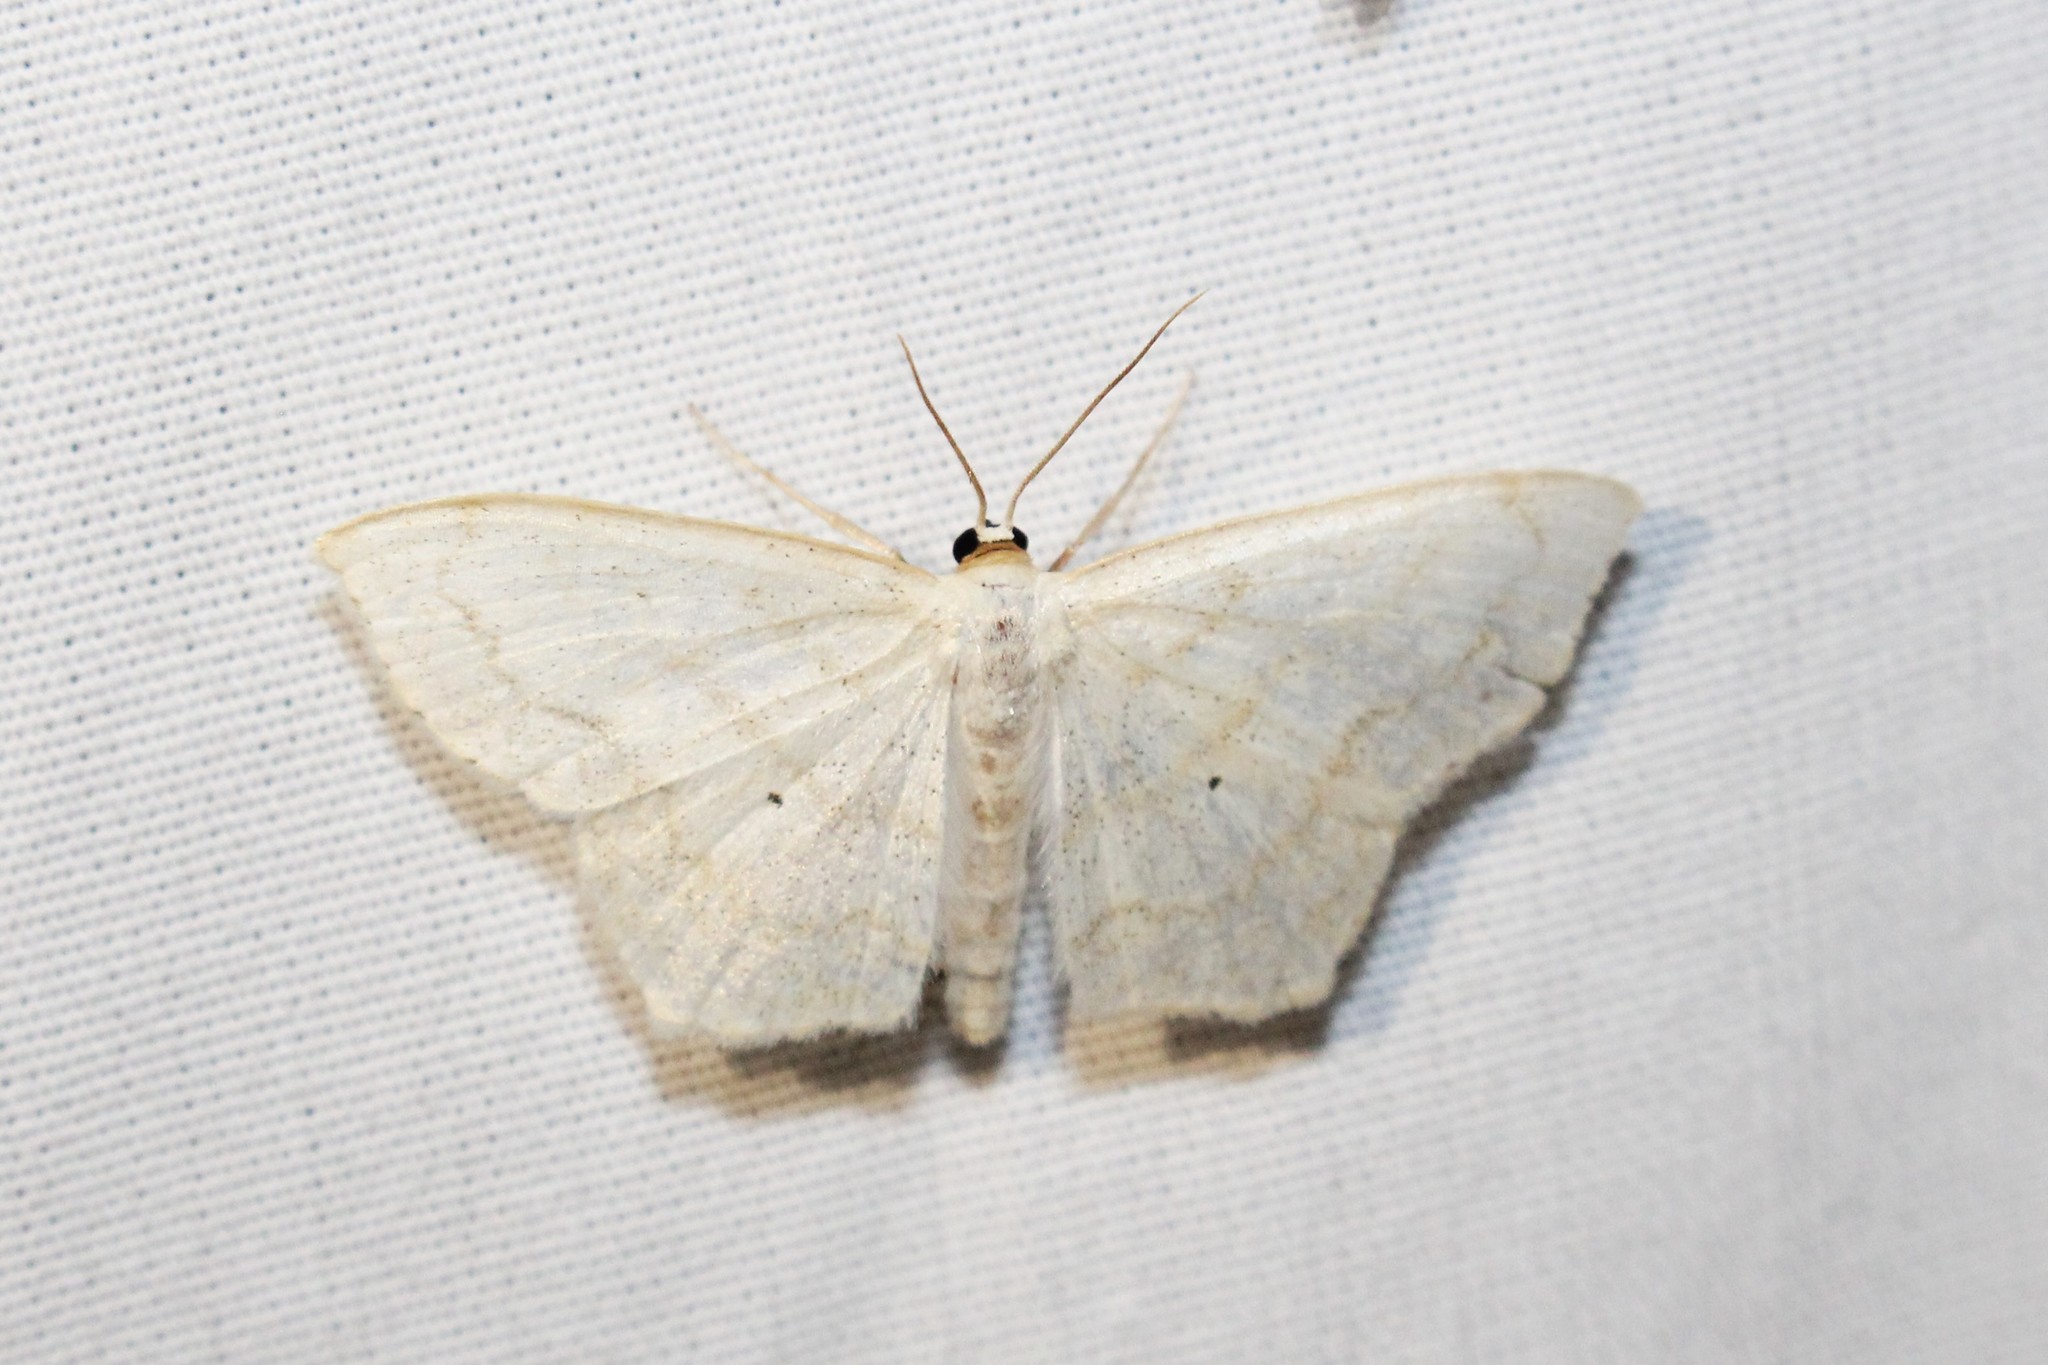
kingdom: Animalia
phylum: Arthropoda
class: Insecta
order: Lepidoptera
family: Geometridae
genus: Scopula
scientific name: Scopula limboundata
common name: Large lace border
